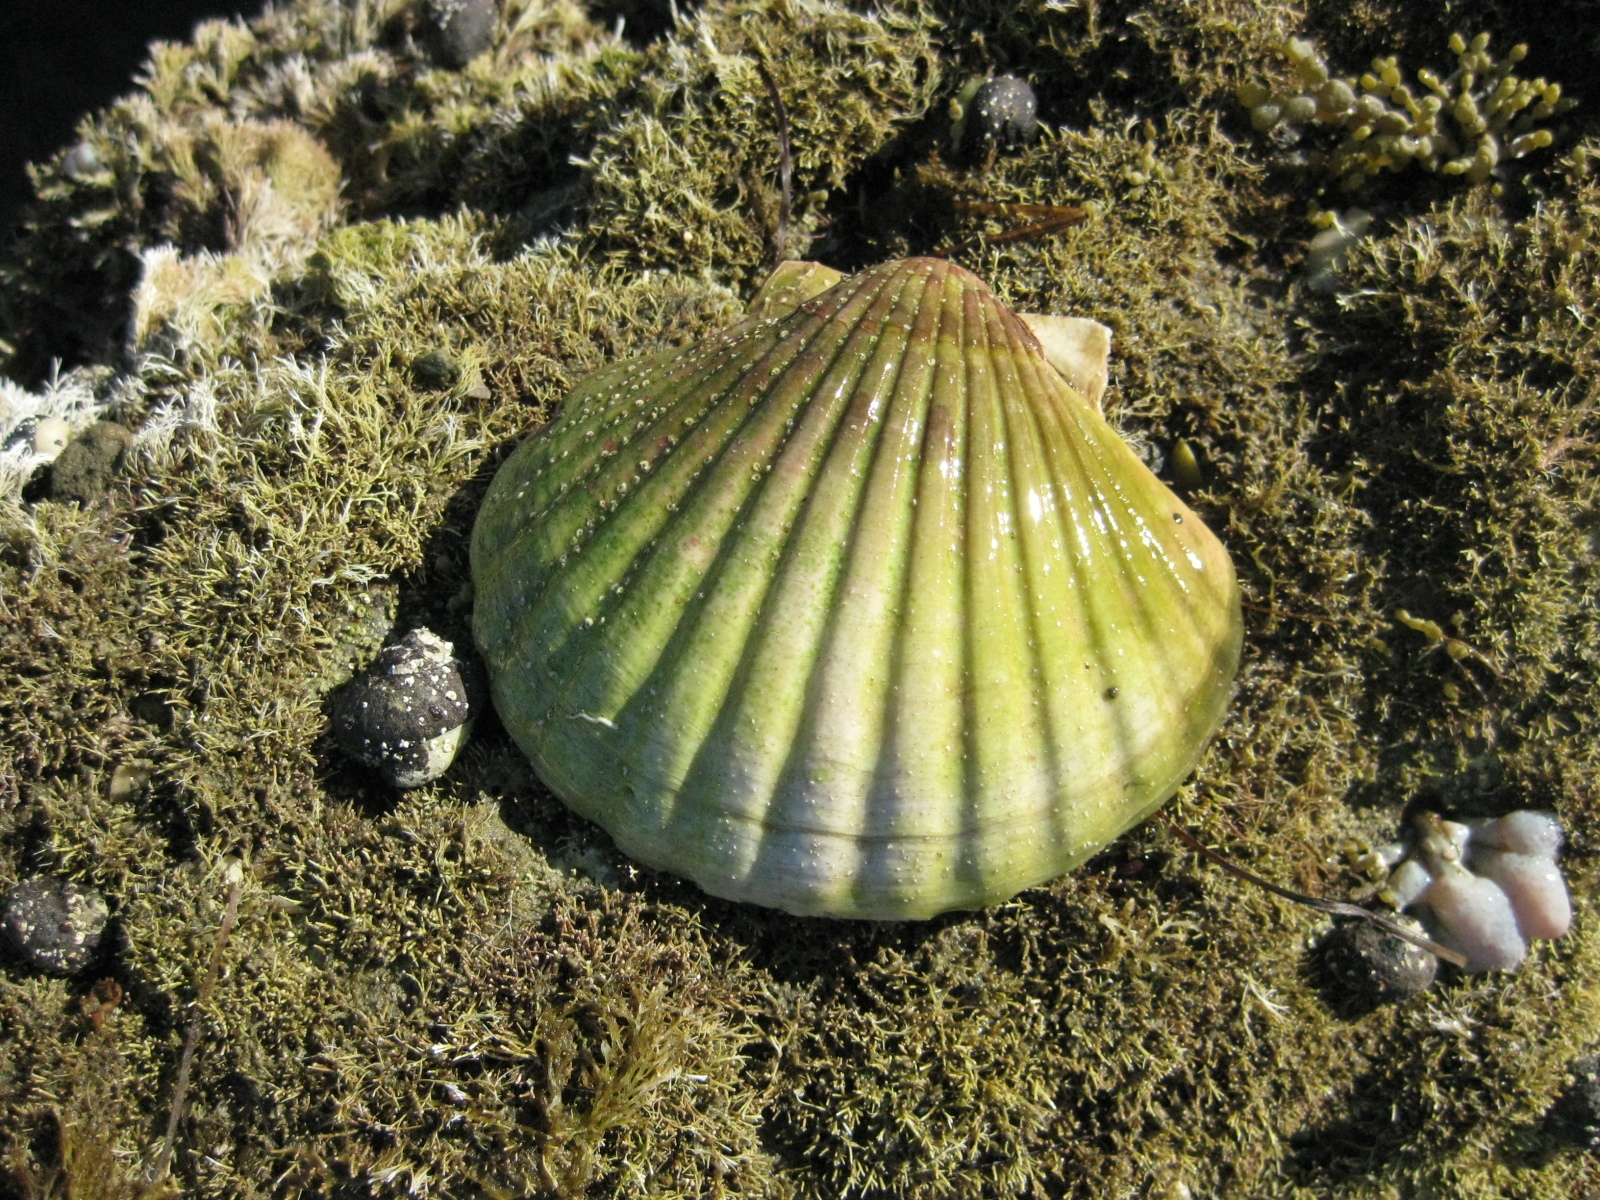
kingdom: Animalia
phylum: Mollusca
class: Bivalvia
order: Pectinida
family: Pectinidae
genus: Pecten
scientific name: Pecten novaezelandiae
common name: New zealand scallop
